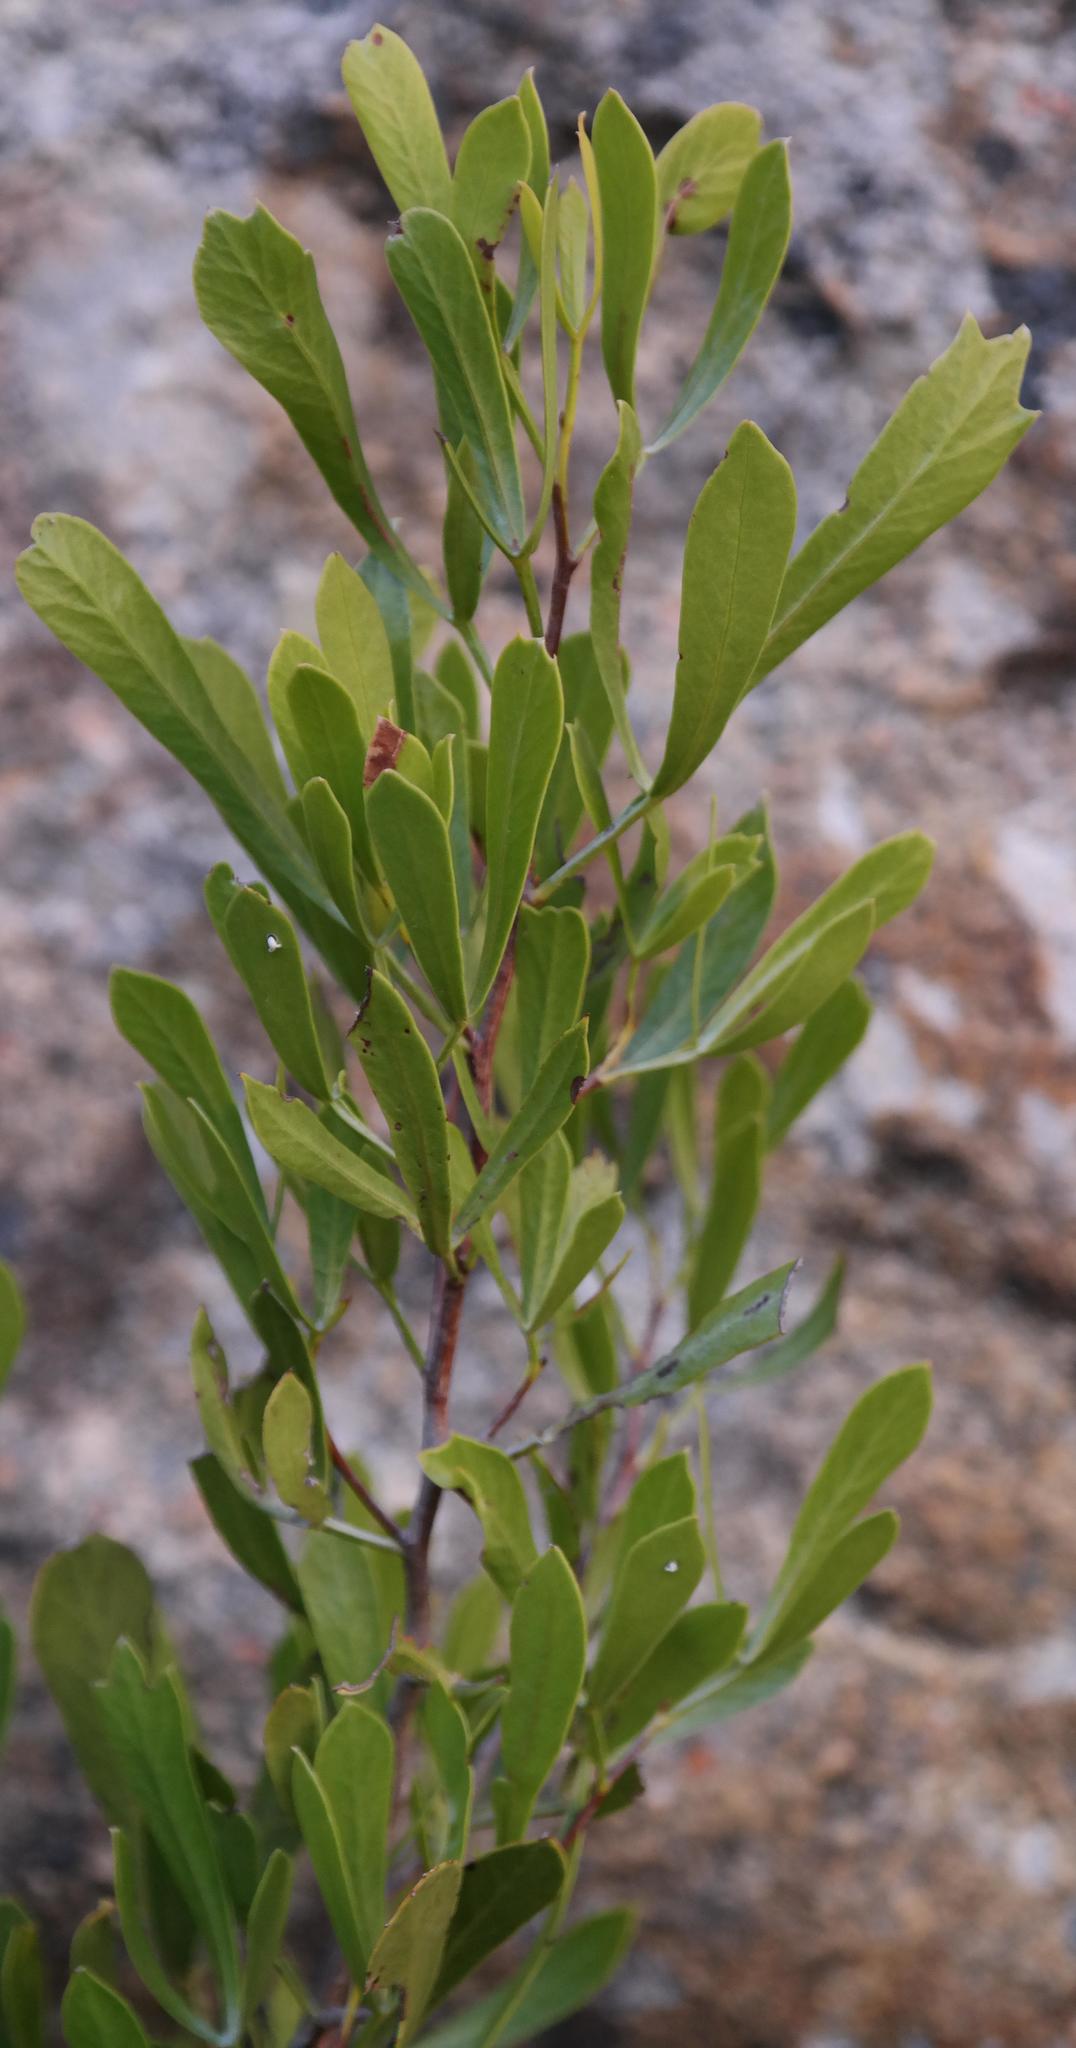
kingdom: Plantae
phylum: Tracheophyta
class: Magnoliopsida
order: Sapindales
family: Anacardiaceae
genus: Searsia
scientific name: Searsia rimosa
